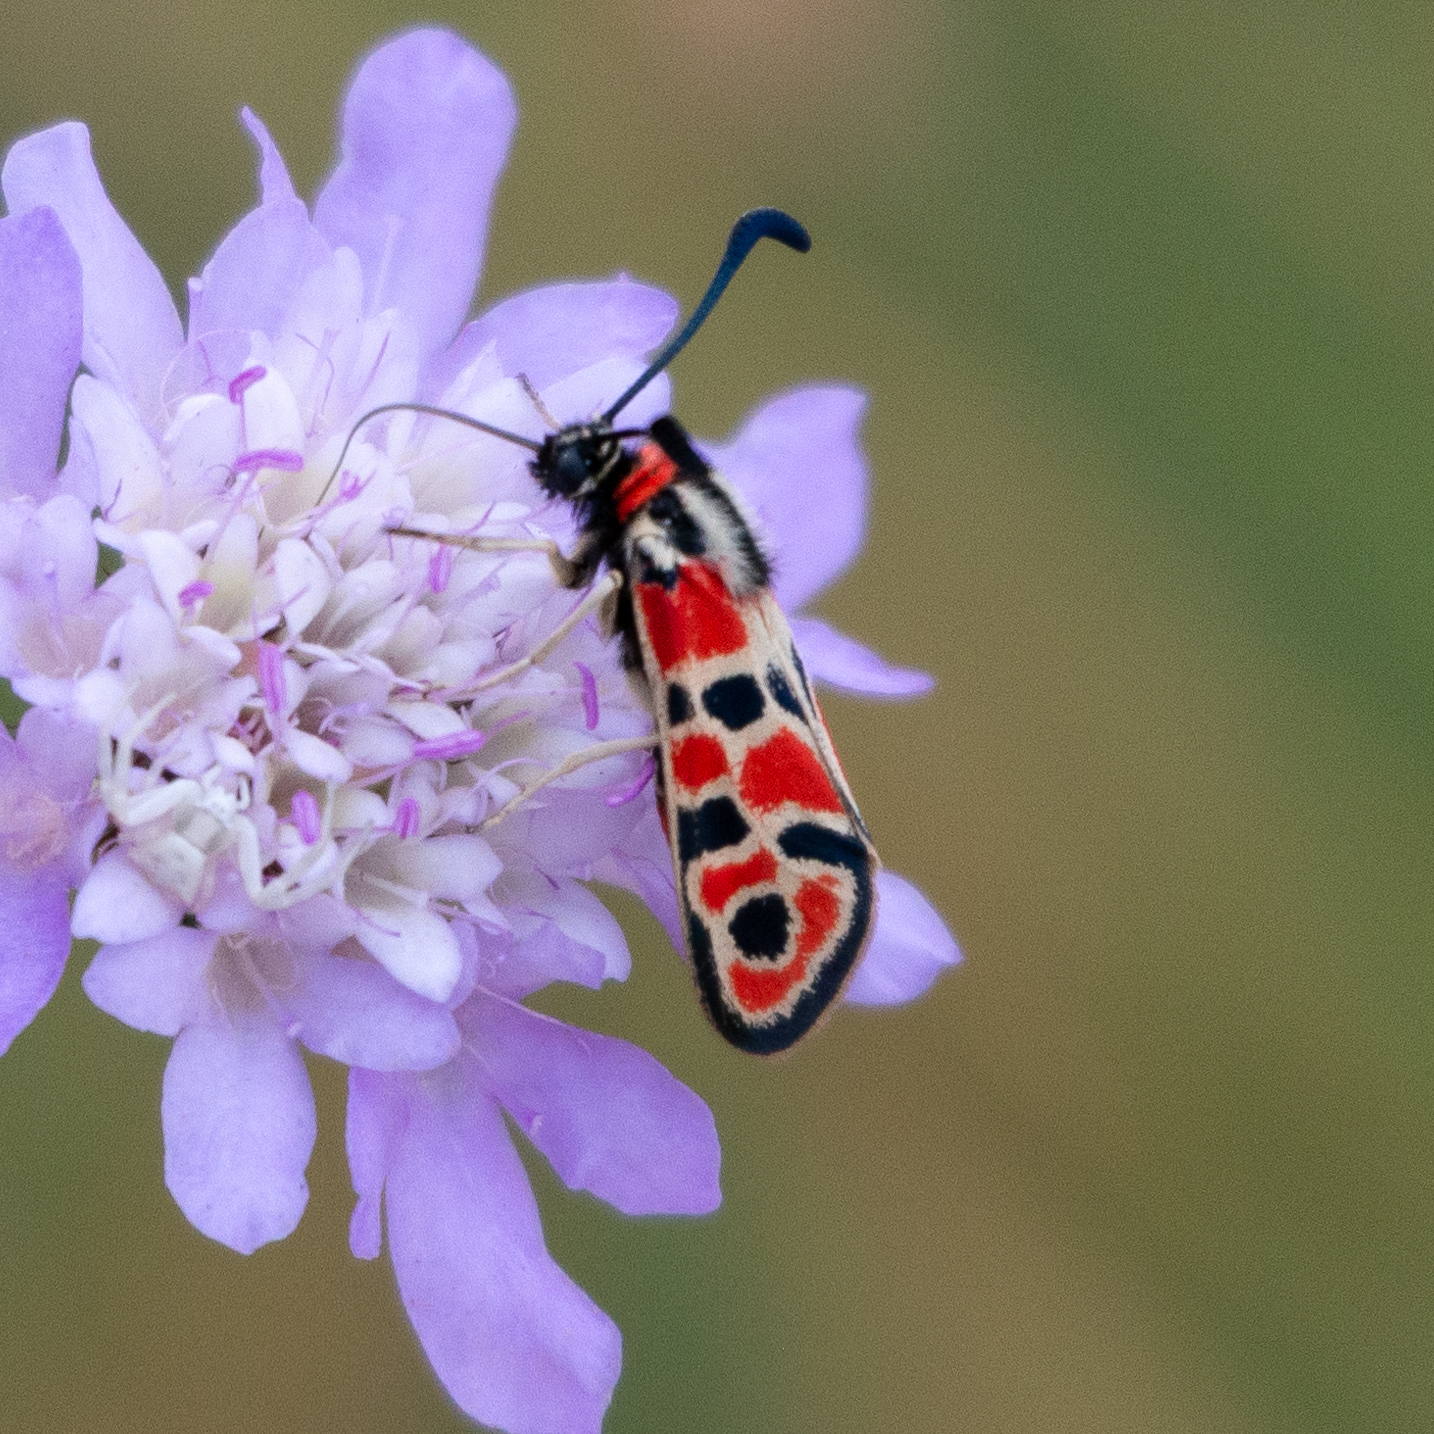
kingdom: Animalia
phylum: Arthropoda
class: Insecta
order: Lepidoptera
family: Zygaenidae
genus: Zygaena
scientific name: Zygaena fausta
